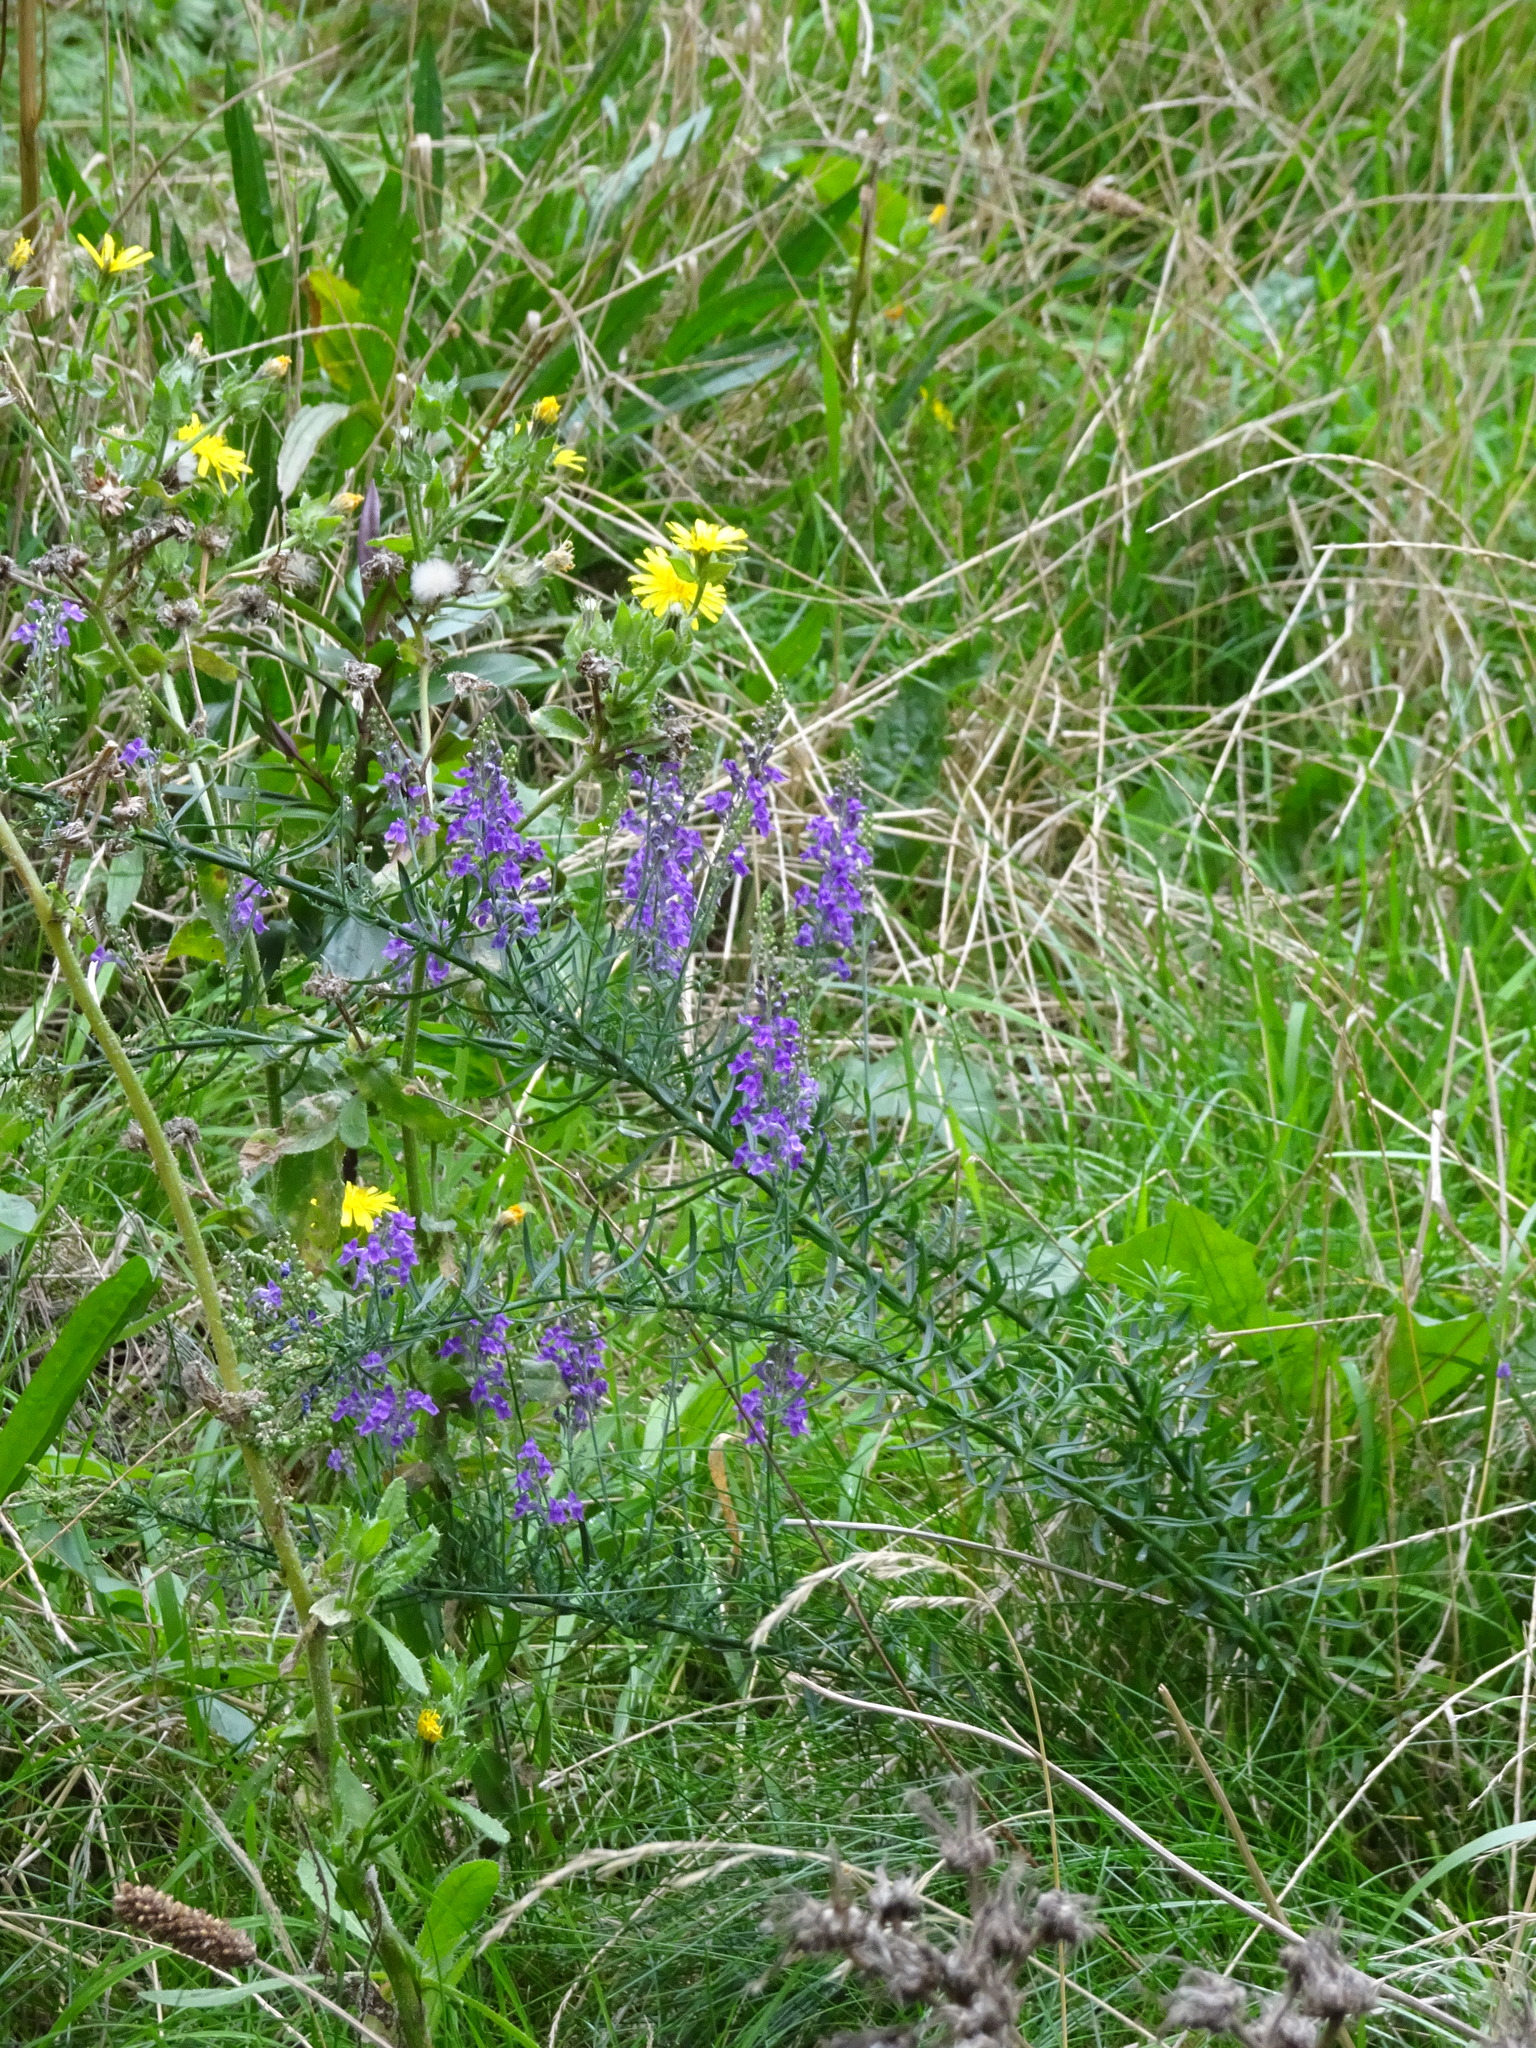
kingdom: Plantae
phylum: Tracheophyta
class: Magnoliopsida
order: Lamiales
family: Plantaginaceae
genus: Linaria
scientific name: Linaria purpurea
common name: Purple toadflax
